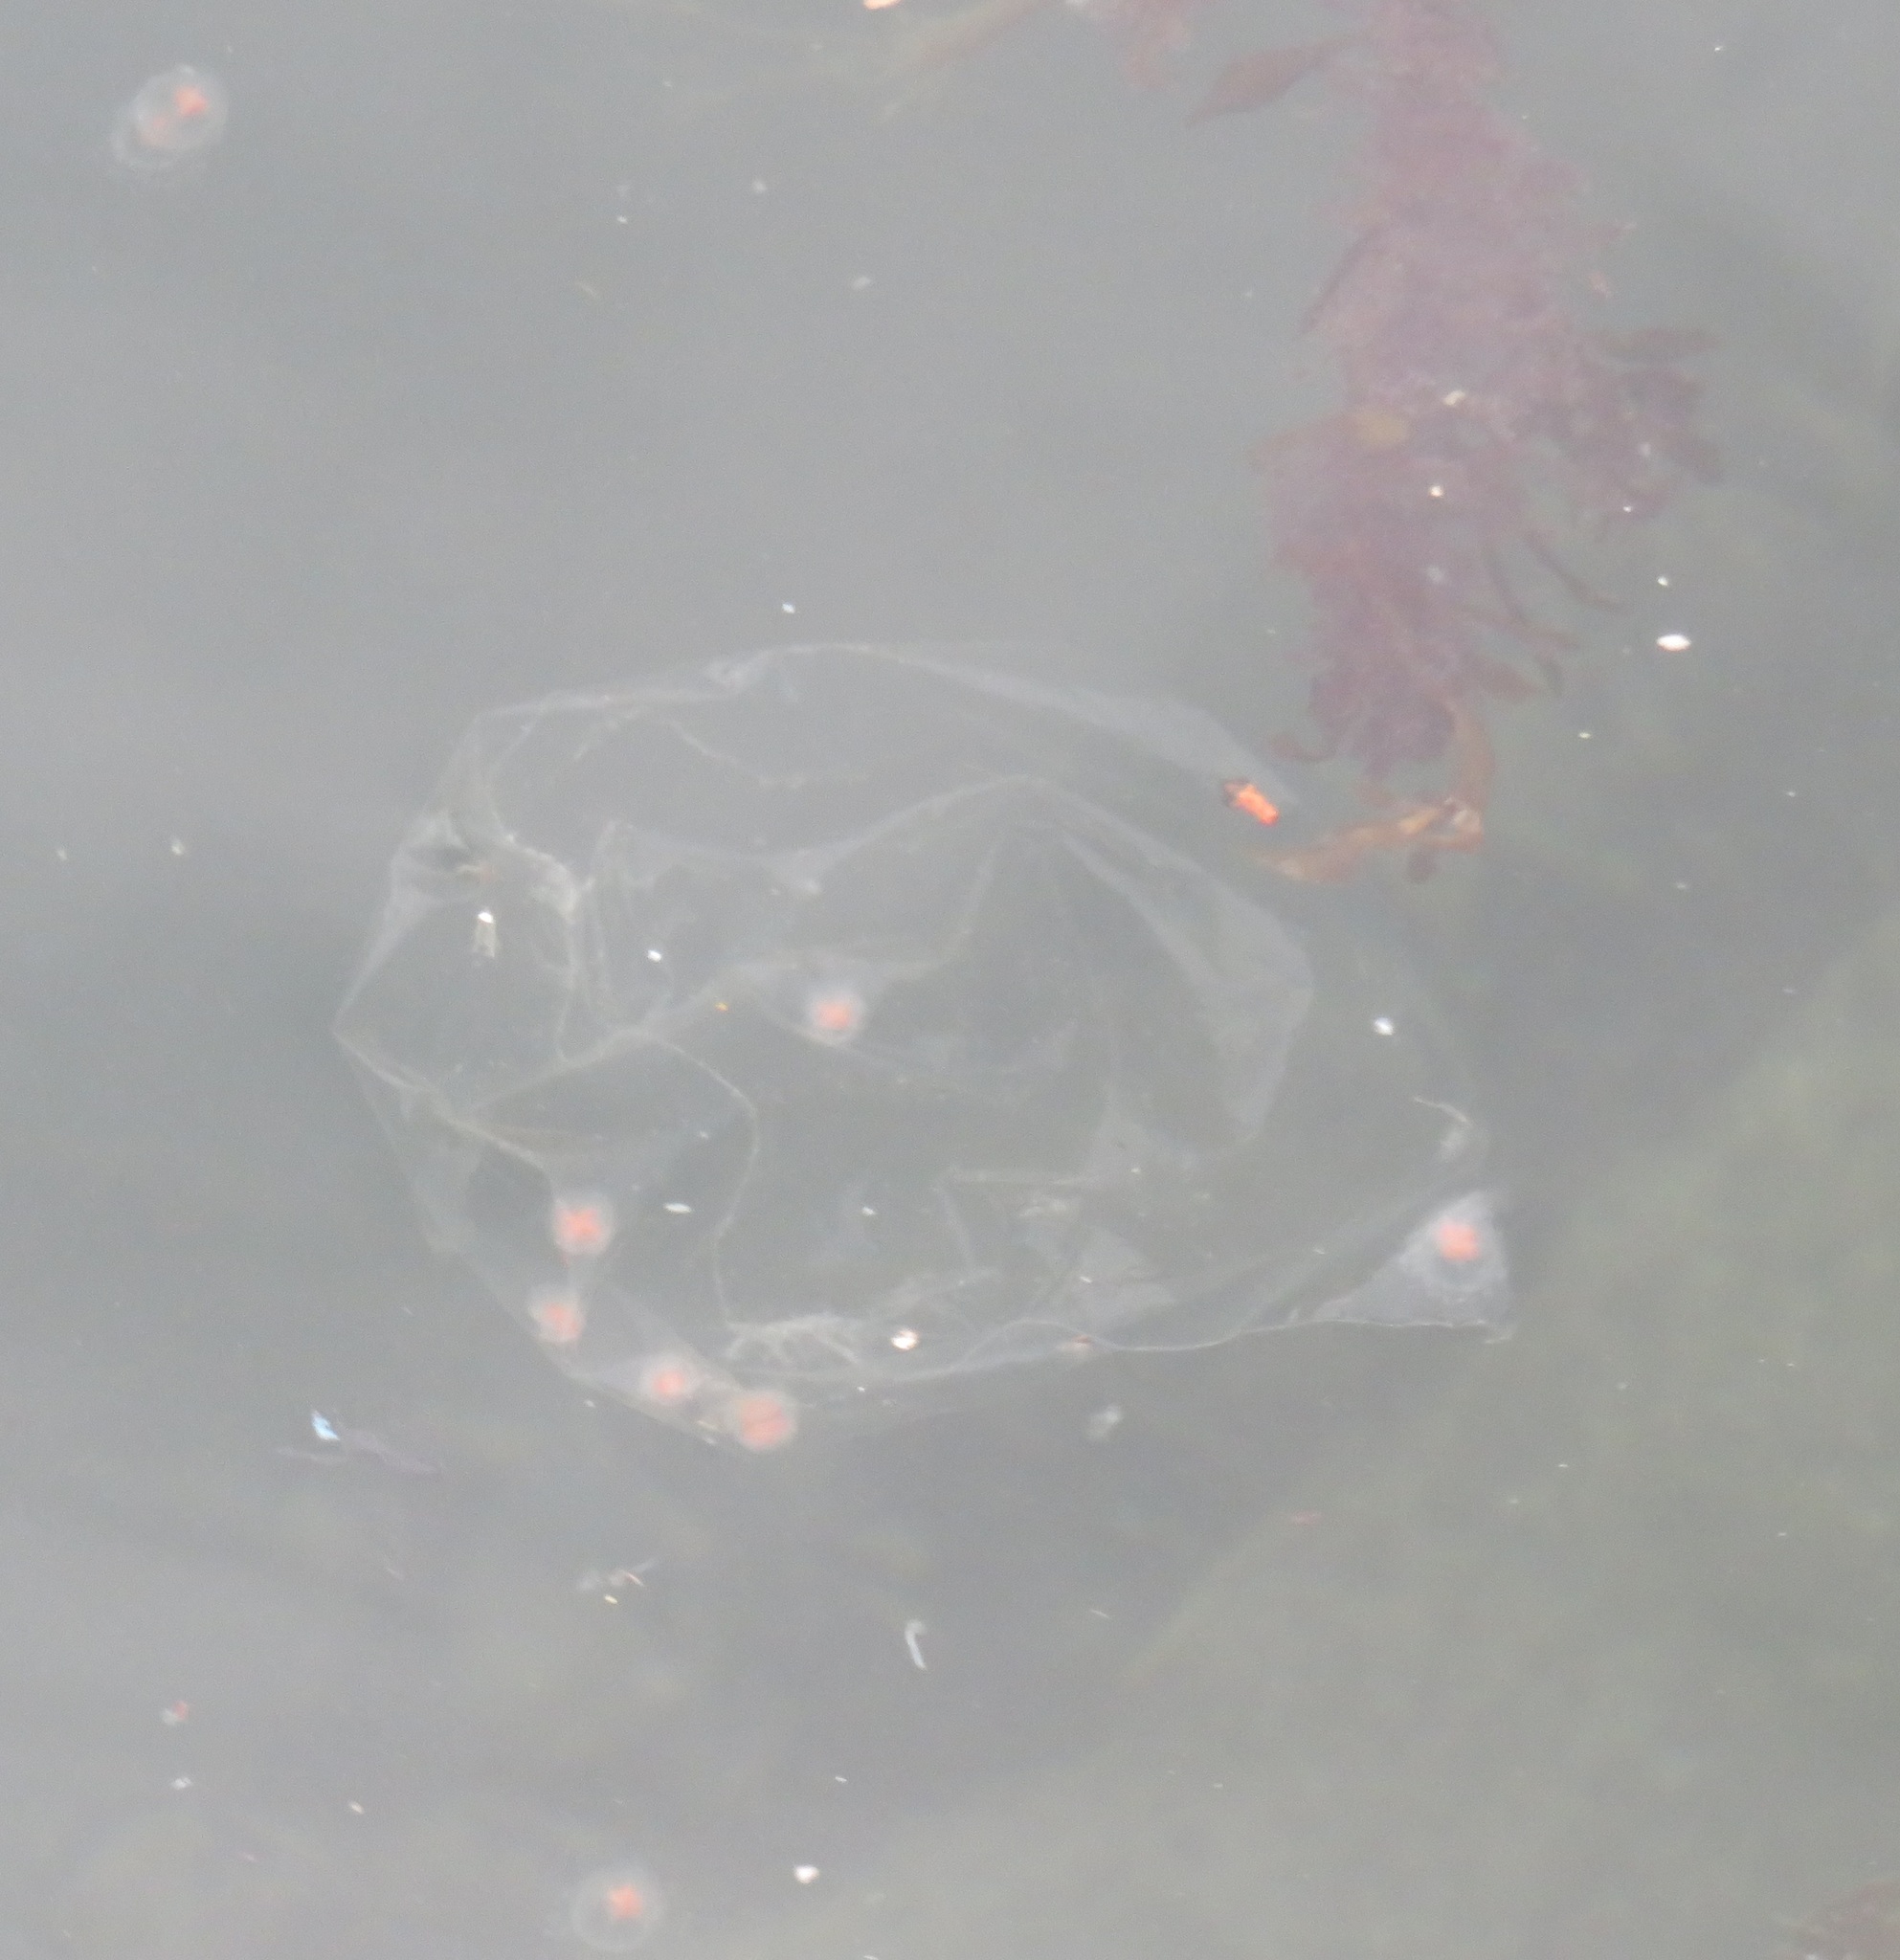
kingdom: Animalia
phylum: Cnidaria
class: Hydrozoa
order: Anthoathecata
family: Oceaniidae
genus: Turritopsis
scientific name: Turritopsis rubra
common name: Crimson jelly
